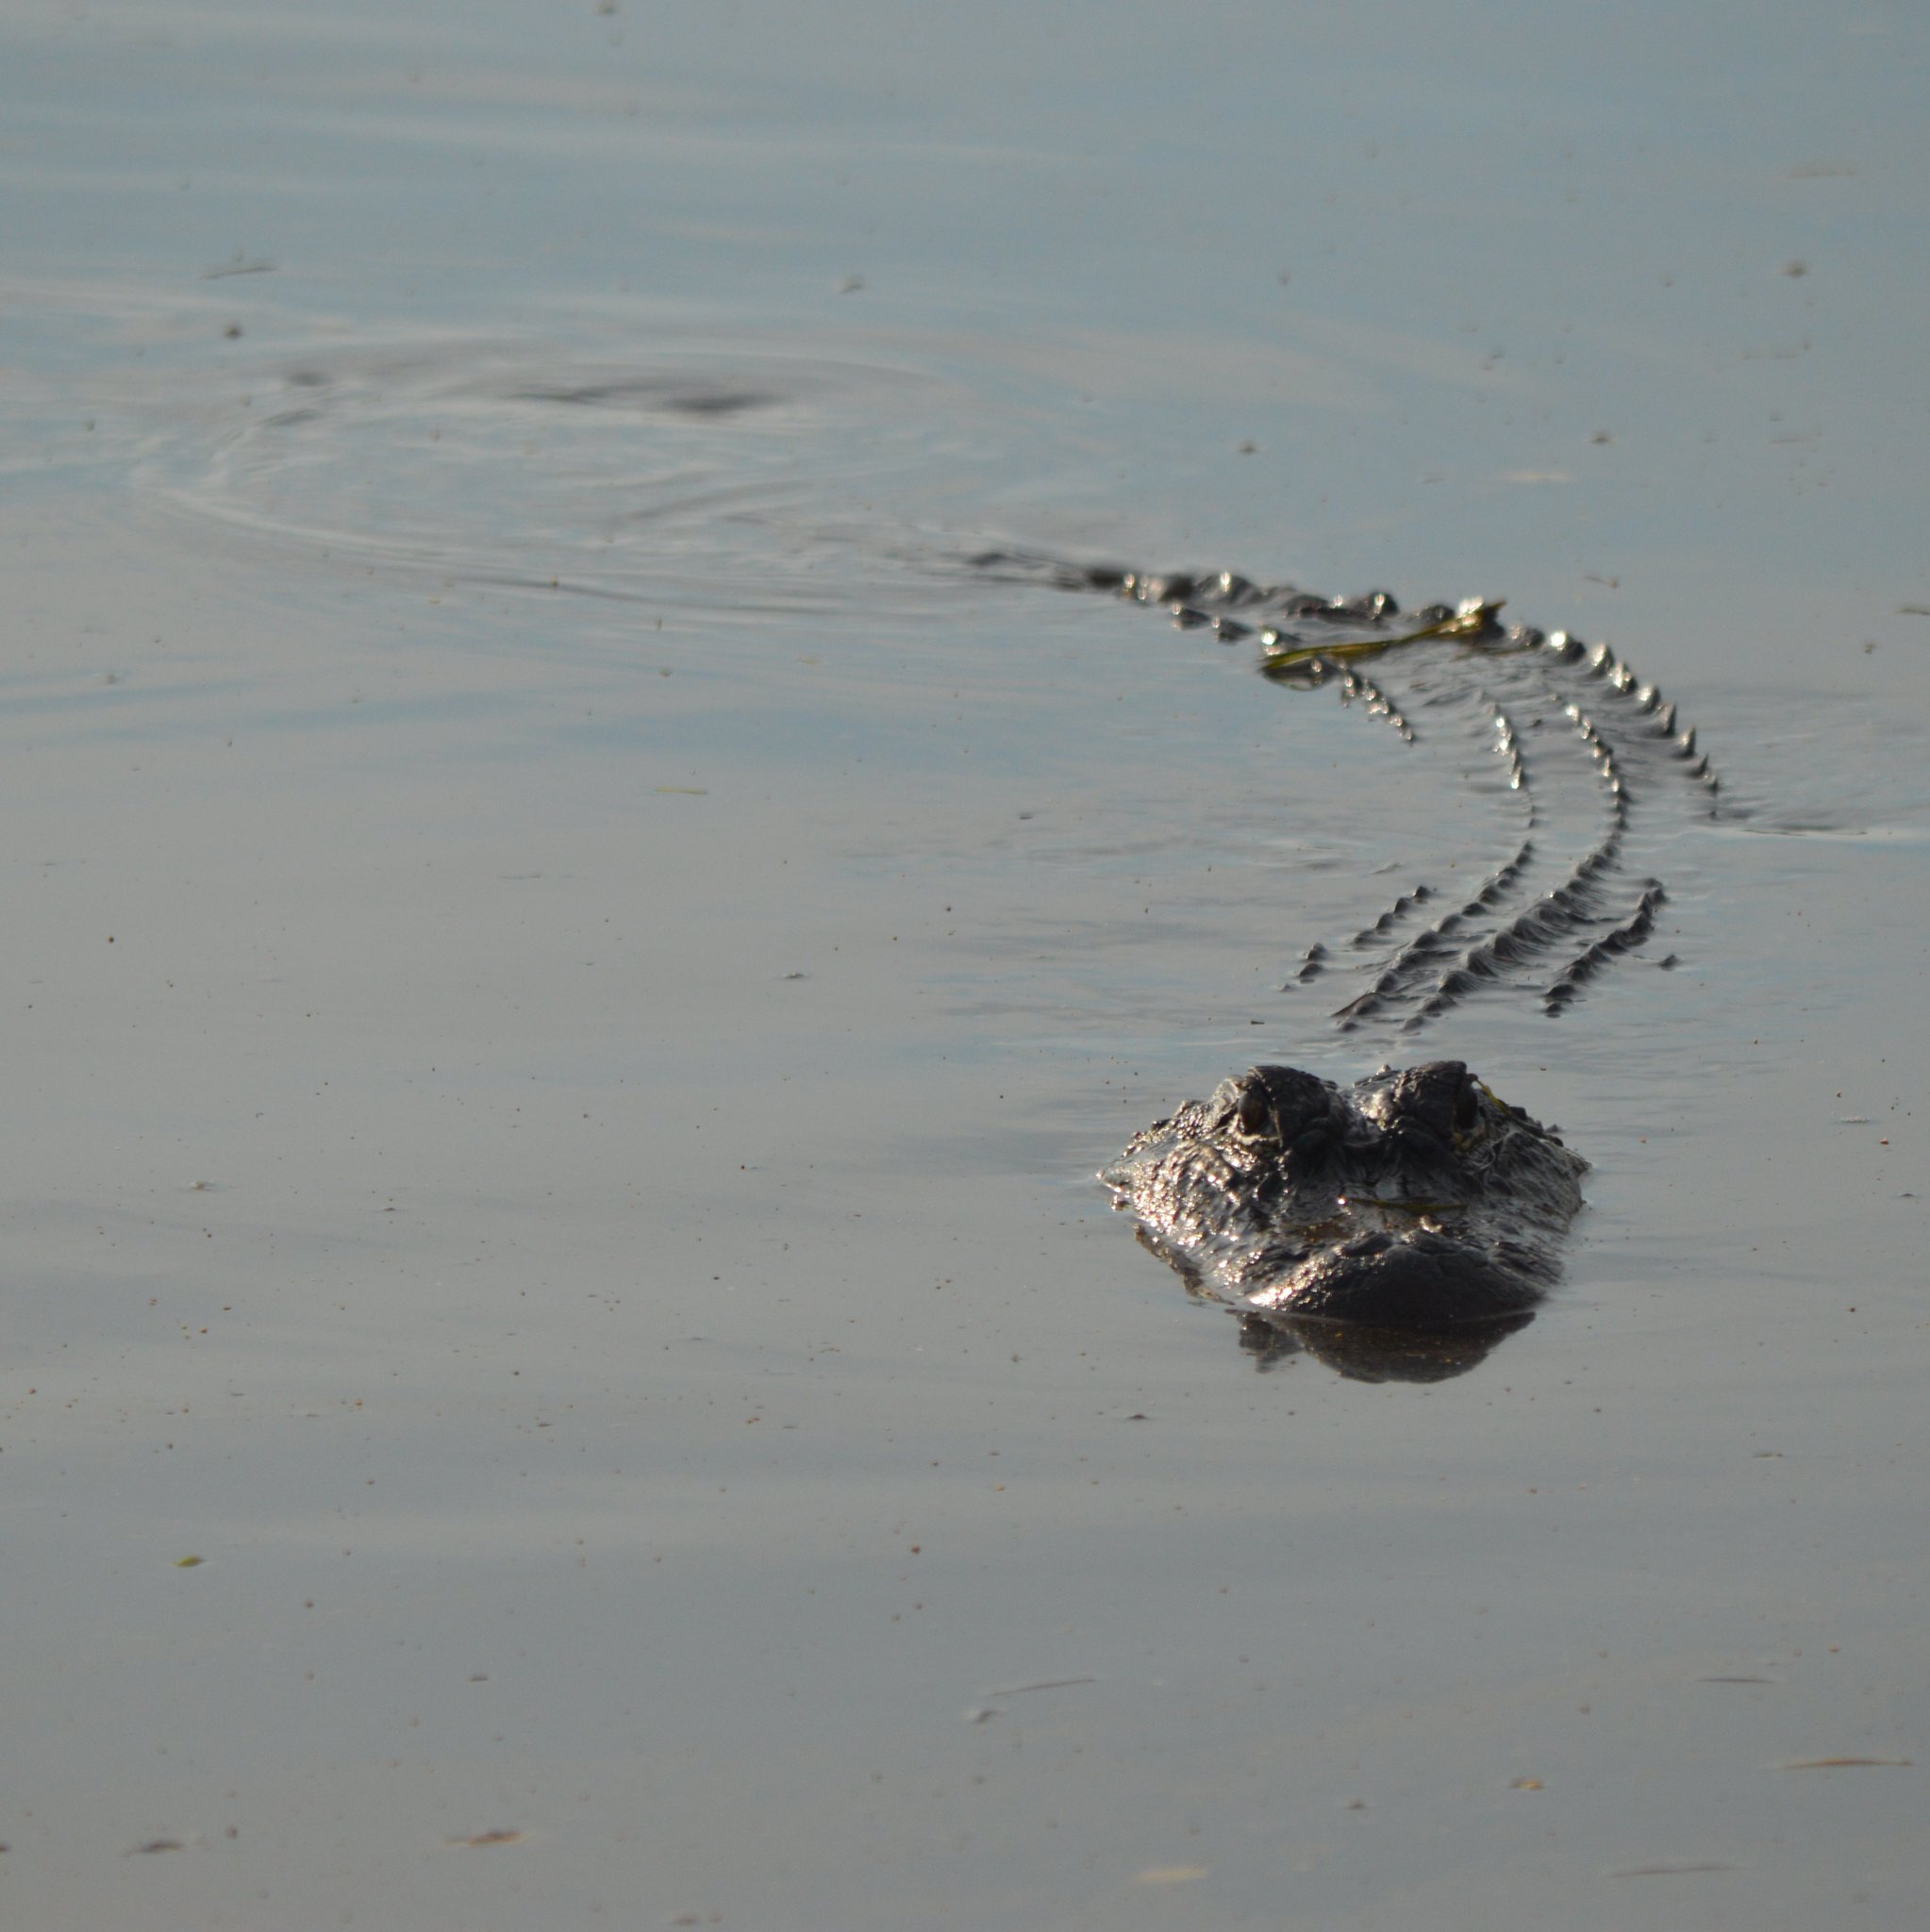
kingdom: Animalia
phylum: Chordata
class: Crocodylia
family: Alligatoridae
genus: Alligator
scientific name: Alligator mississippiensis
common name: American alligator
